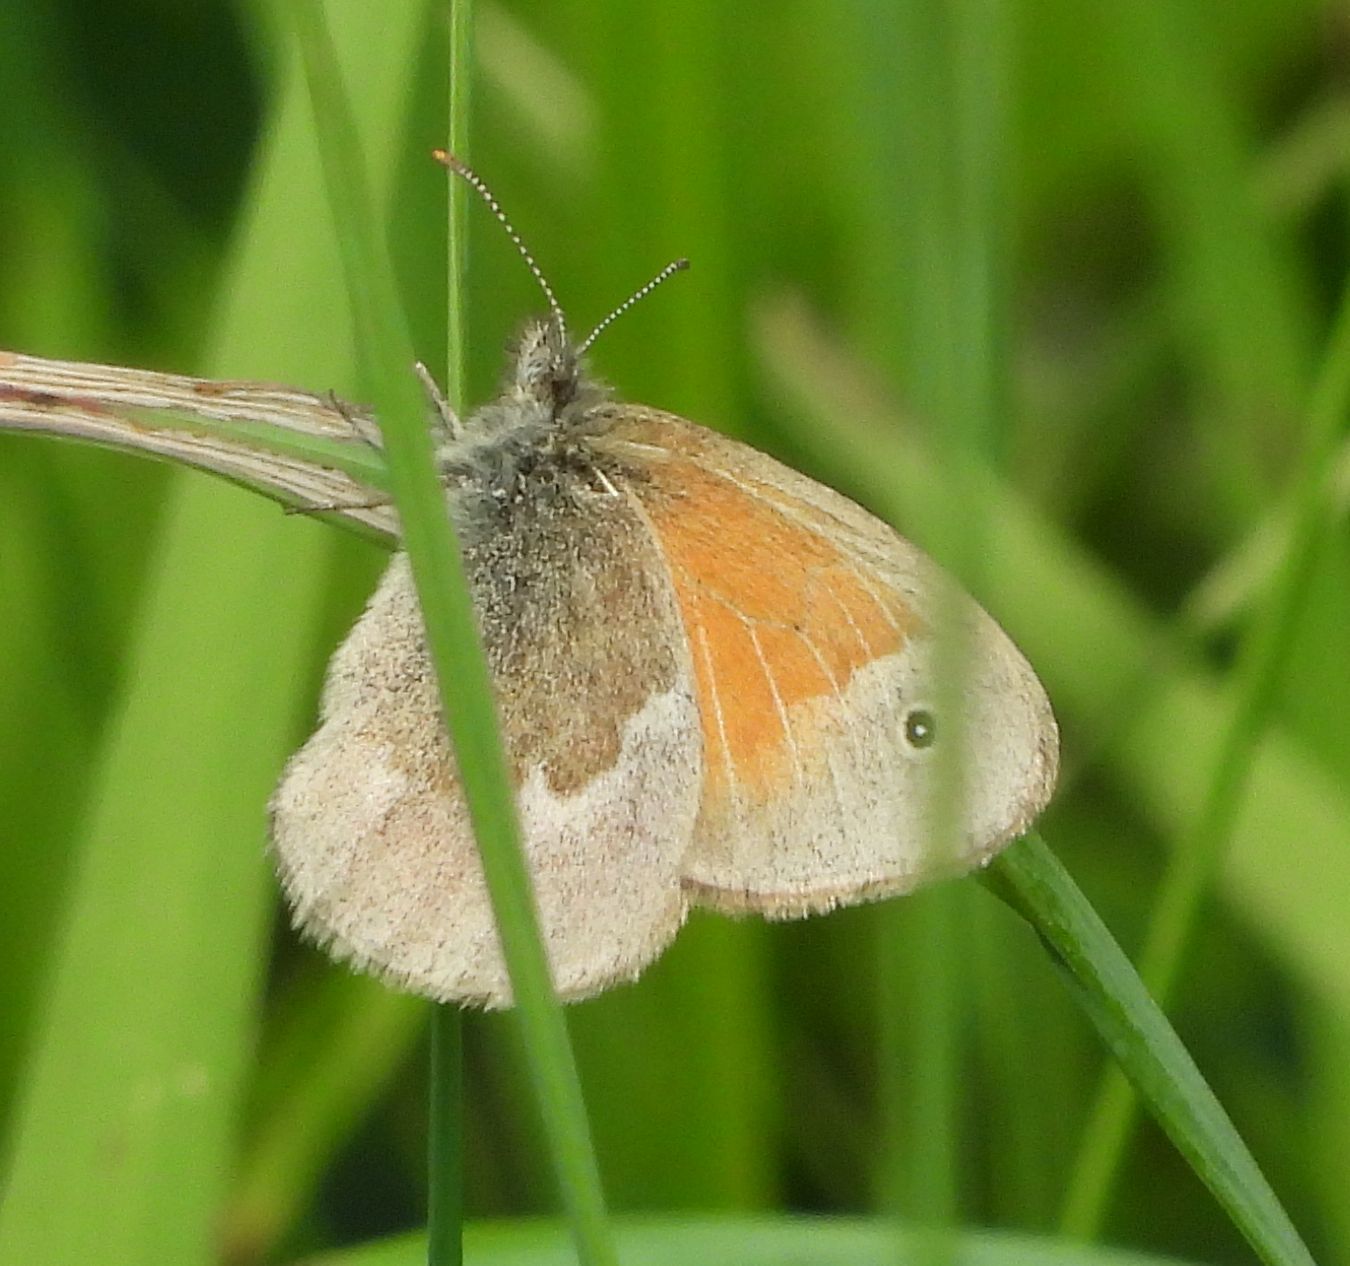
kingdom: Animalia
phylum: Arthropoda
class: Insecta
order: Lepidoptera
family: Nymphalidae
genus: Coenonympha
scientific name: Coenonympha california
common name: Common ringlet
